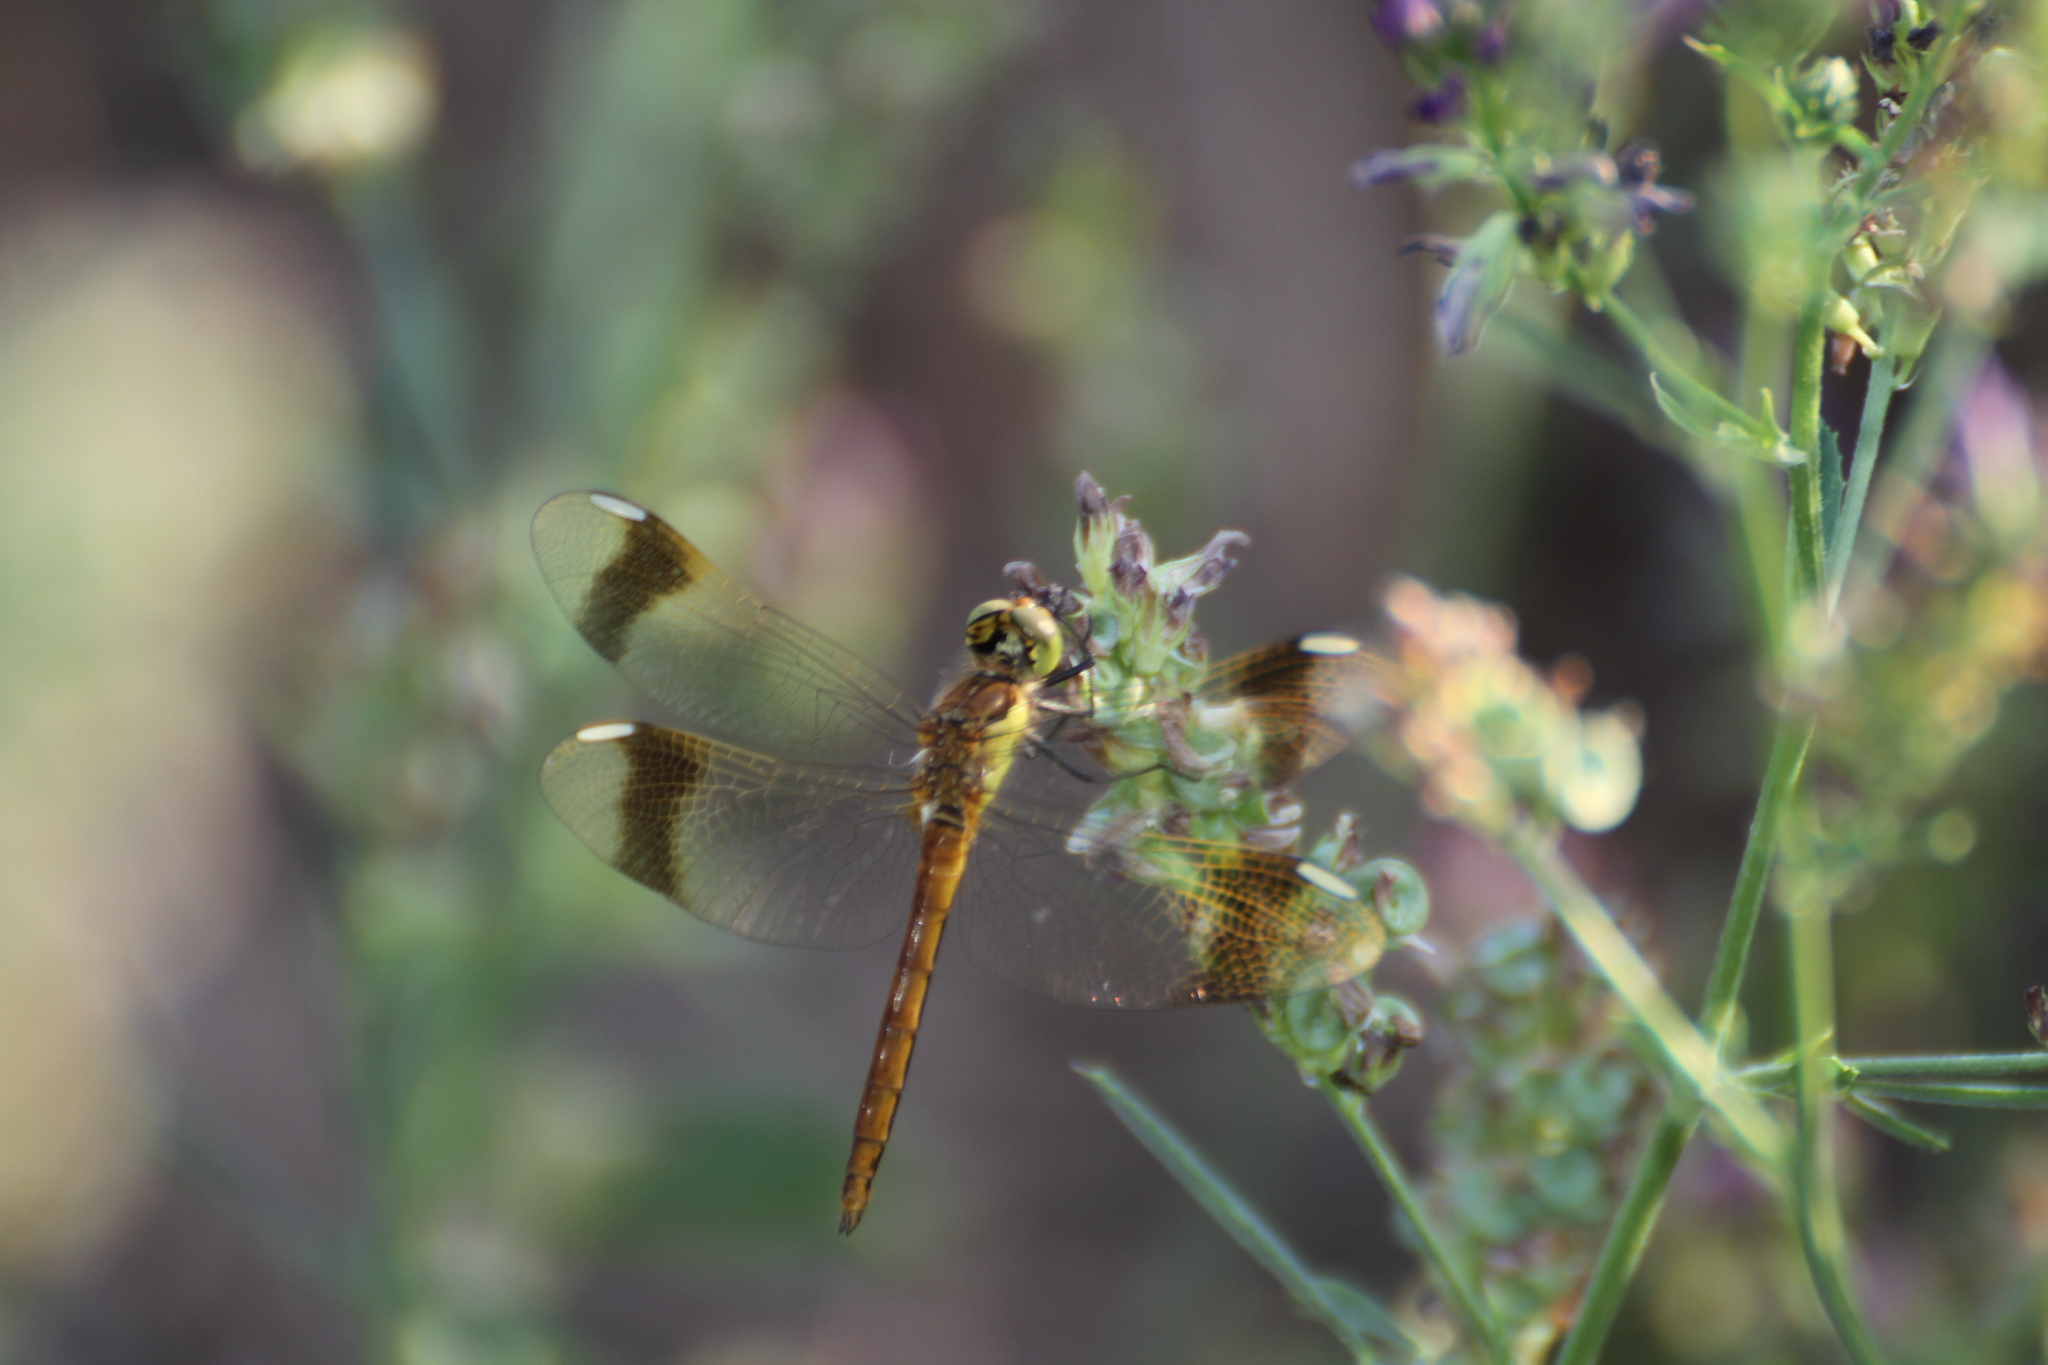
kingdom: Animalia
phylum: Arthropoda
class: Insecta
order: Odonata
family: Libellulidae
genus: Sympetrum
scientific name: Sympetrum pedemontanum
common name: Banded darter
